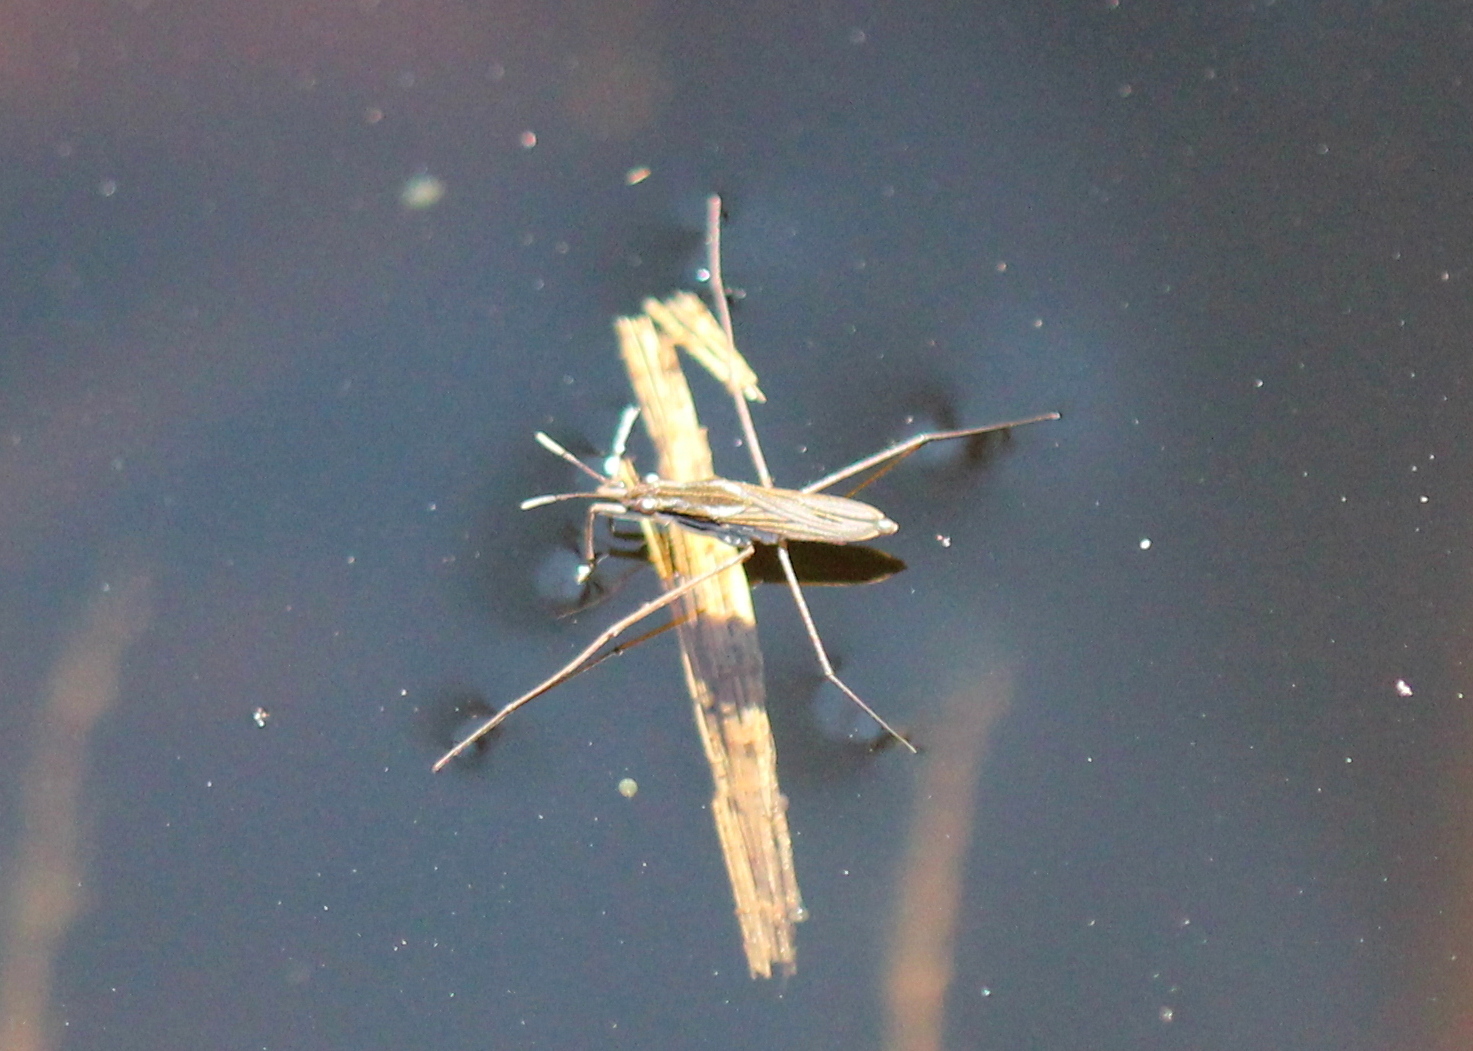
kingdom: Animalia
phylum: Arthropoda
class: Insecta
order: Hemiptera
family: Gerridae
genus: Gerris
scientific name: Gerris
